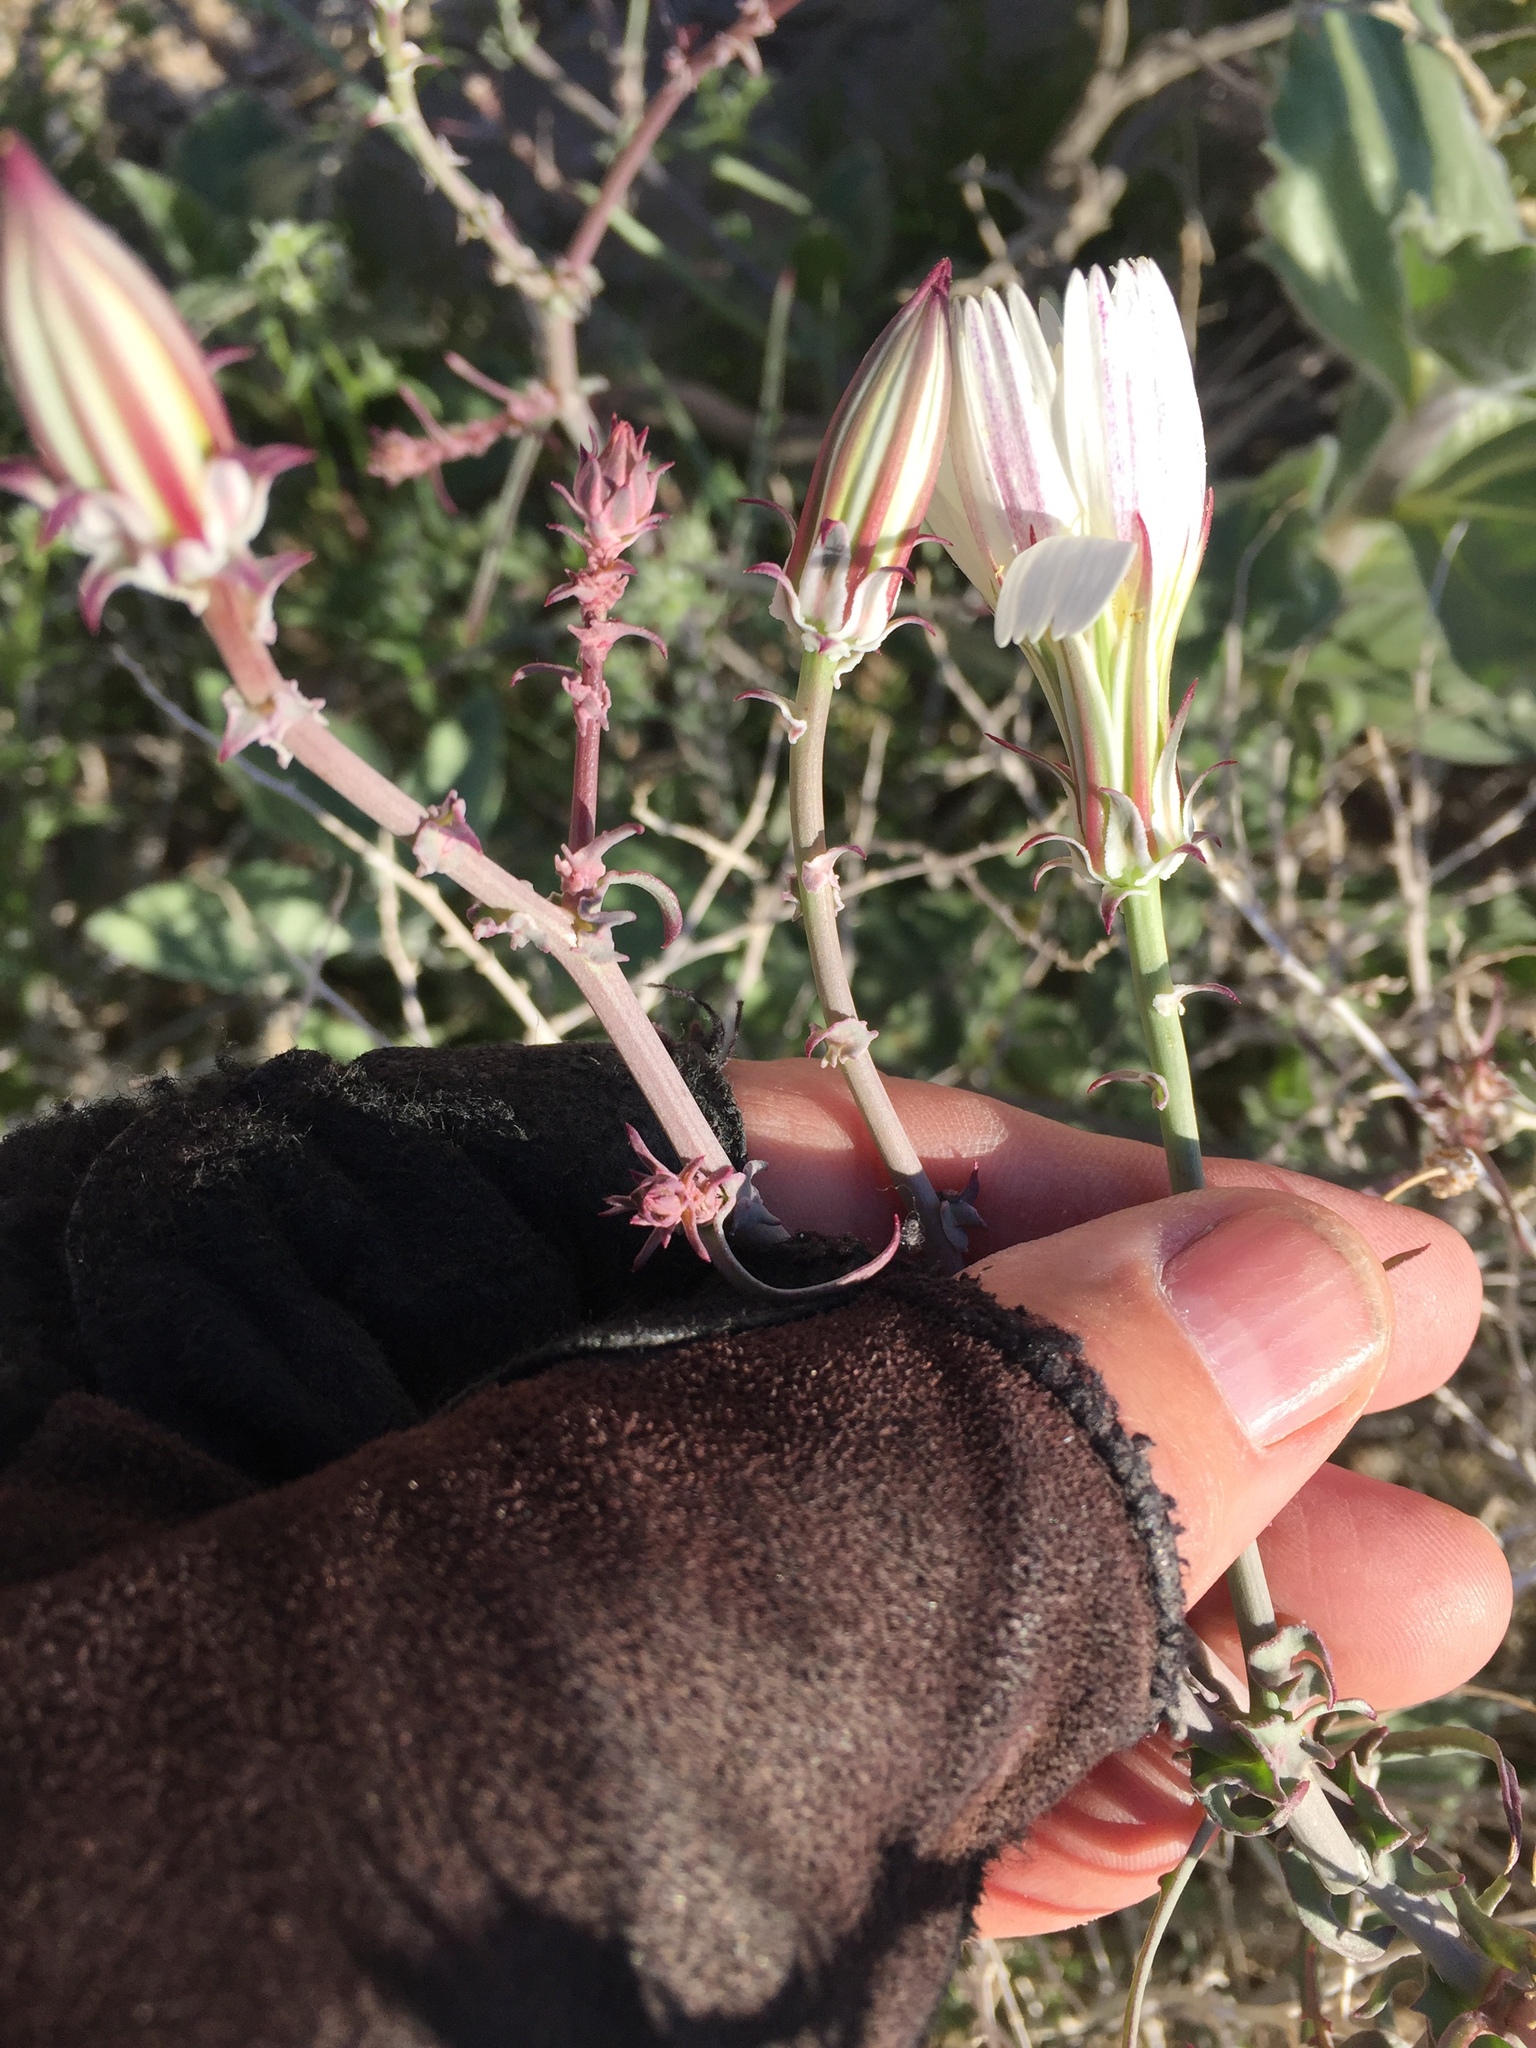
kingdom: Plantae
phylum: Tracheophyta
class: Magnoliopsida
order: Asterales
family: Asteraceae
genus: Rafinesquia
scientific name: Rafinesquia neomexicana
